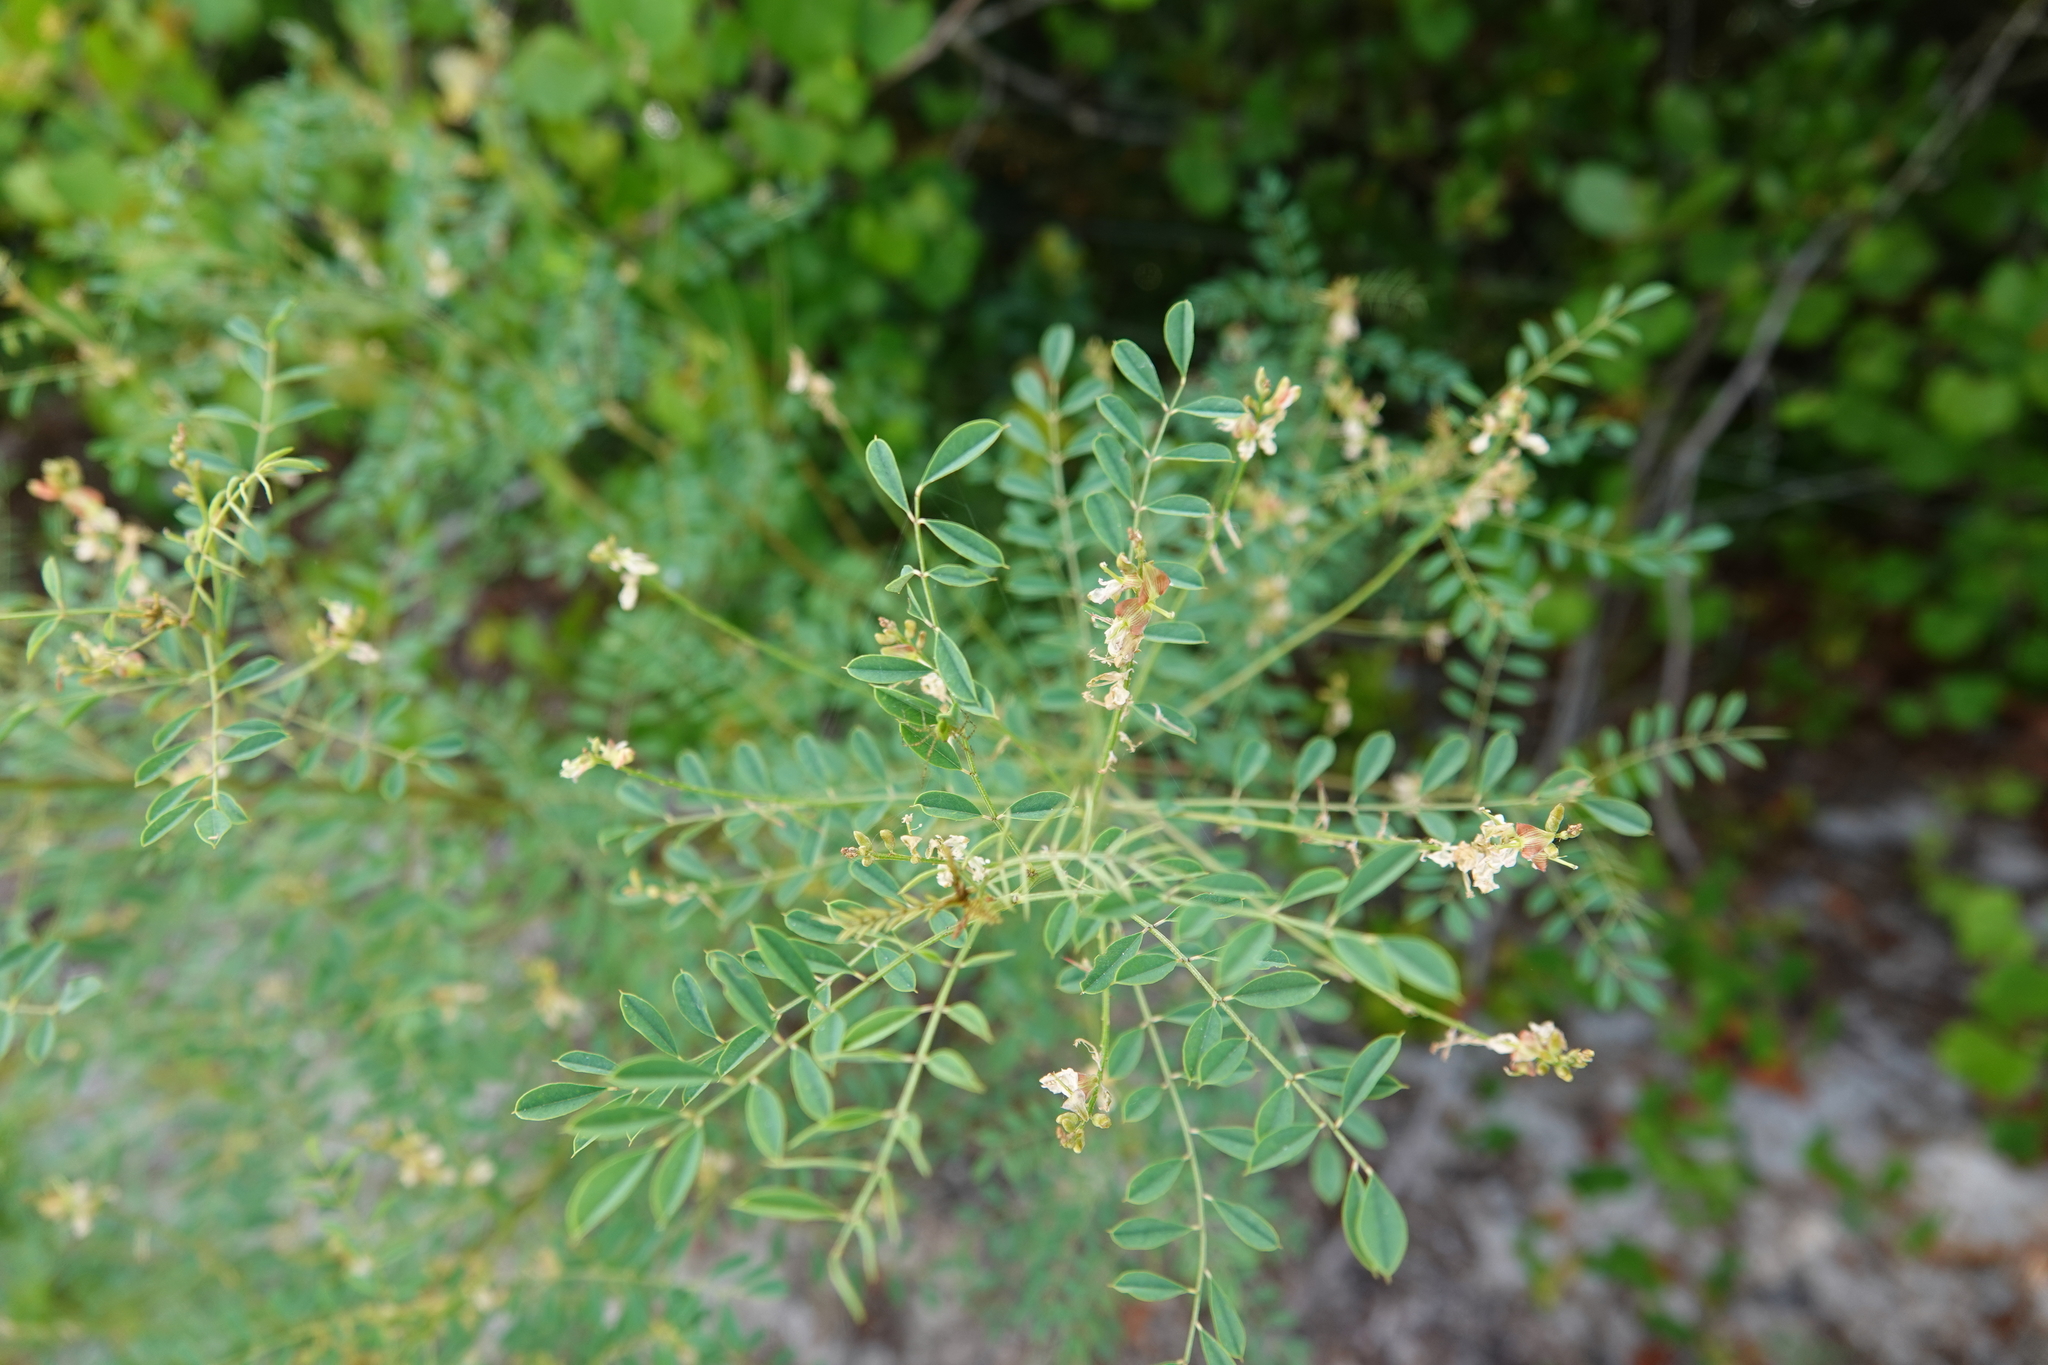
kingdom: Plantae
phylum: Tracheophyta
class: Magnoliopsida
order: Fabales
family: Fabaceae
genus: Indigofera
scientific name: Indigofera caroliniana
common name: Wild indigo
